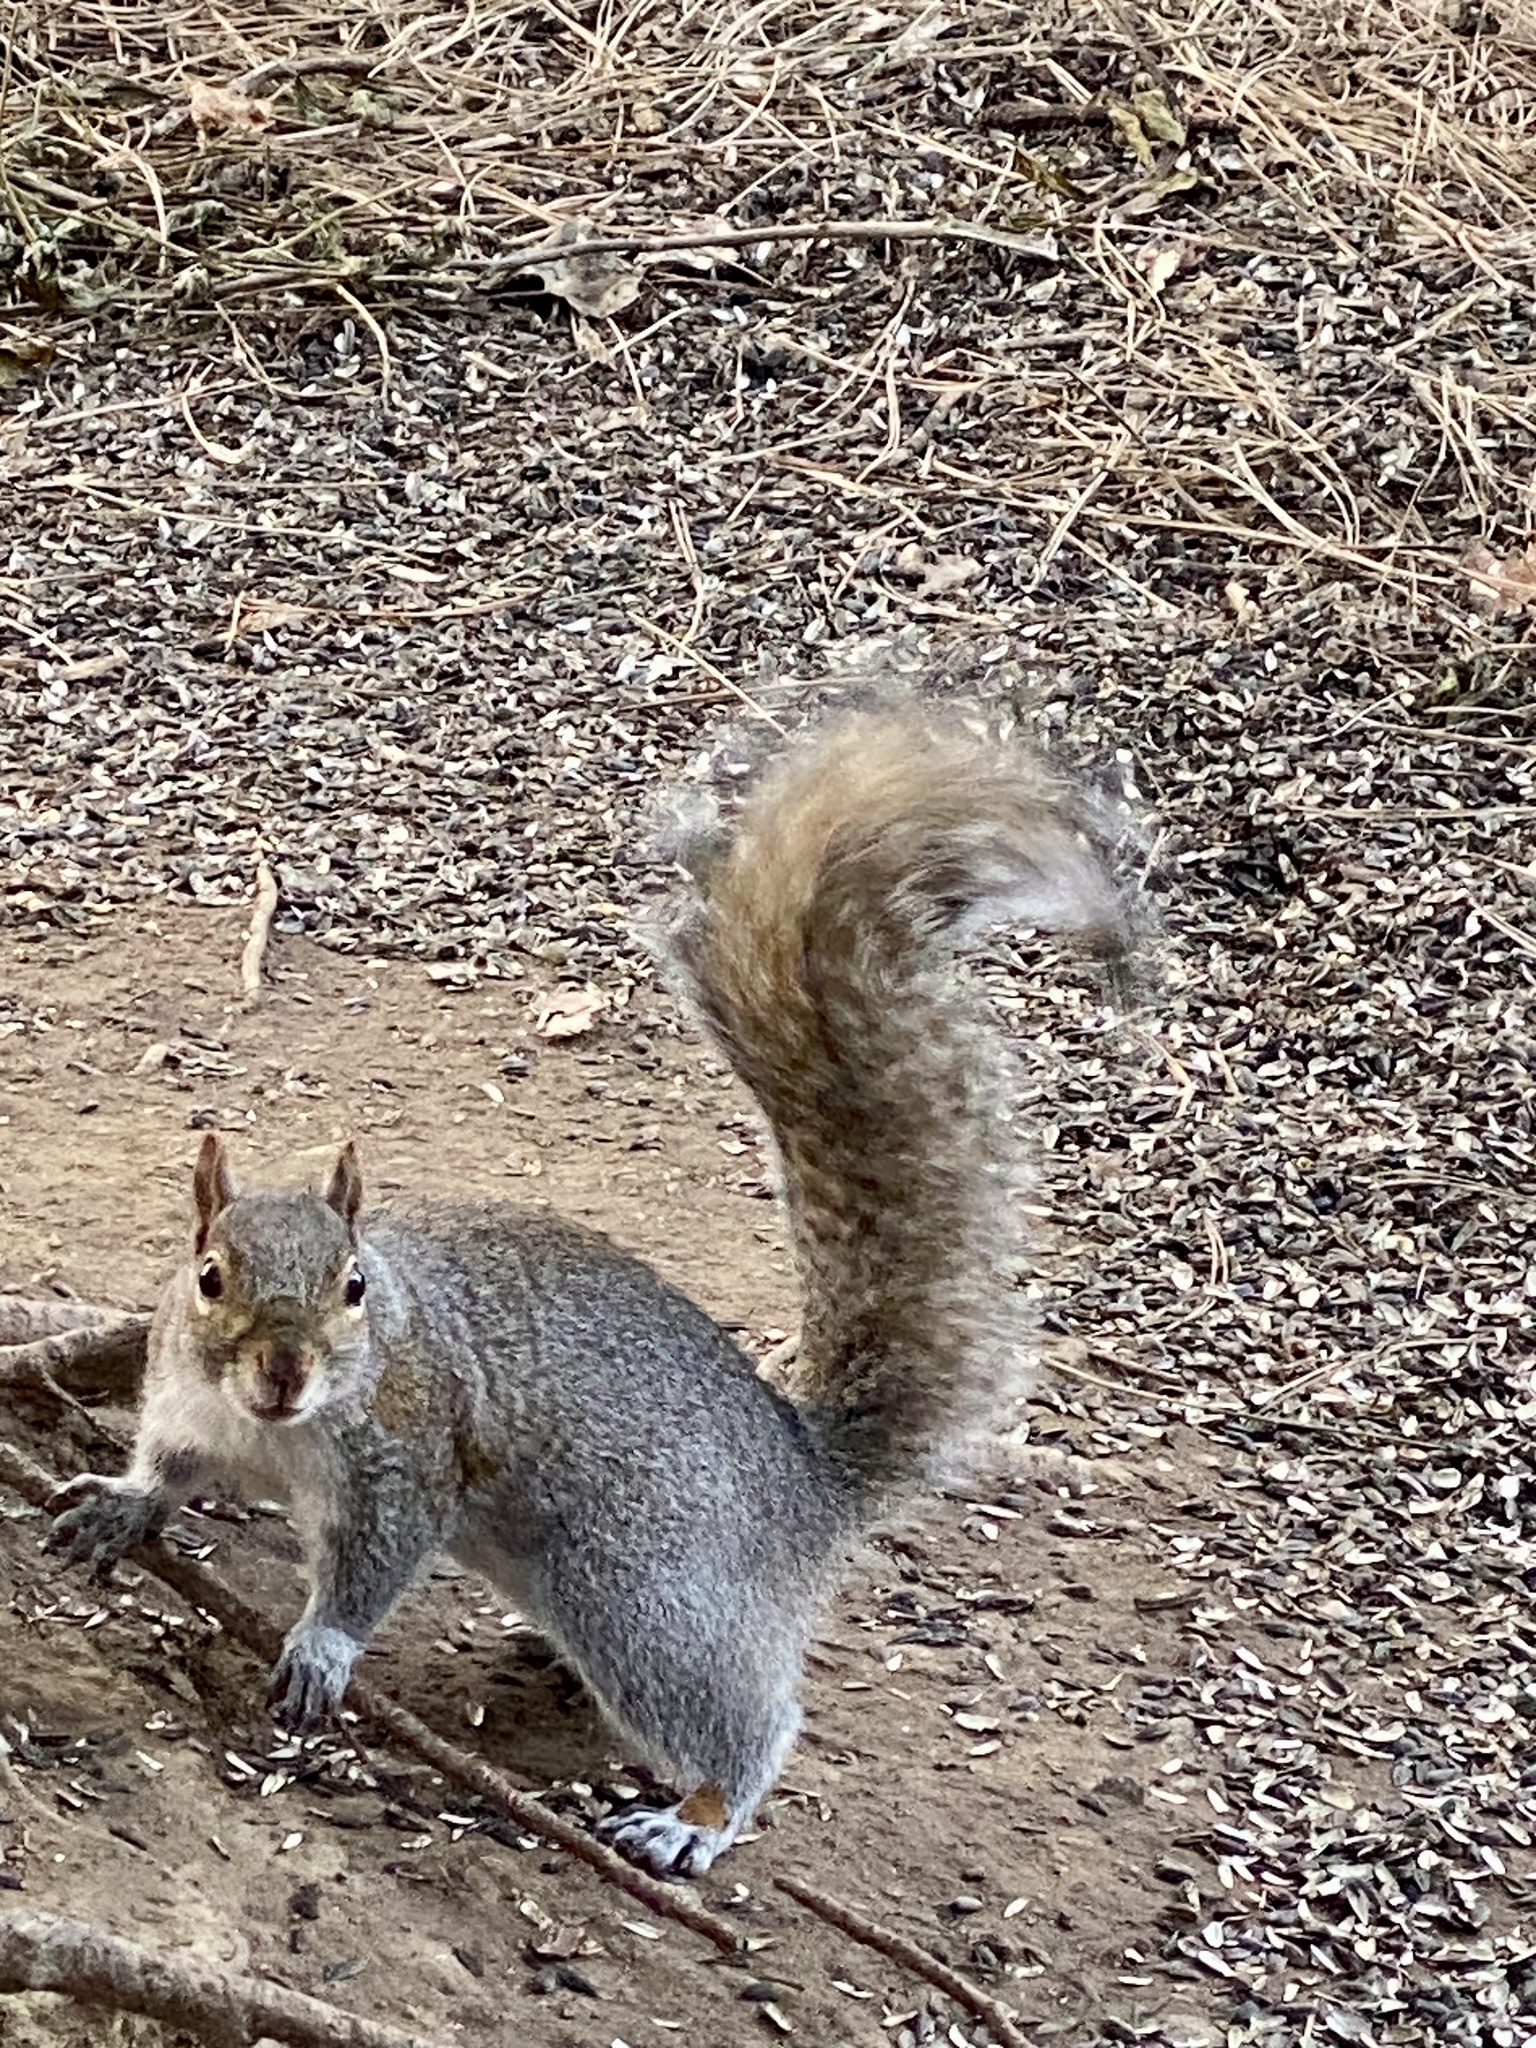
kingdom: Animalia
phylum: Chordata
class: Mammalia
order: Rodentia
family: Sciuridae
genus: Sciurus
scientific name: Sciurus carolinensis
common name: Eastern gray squirrel
